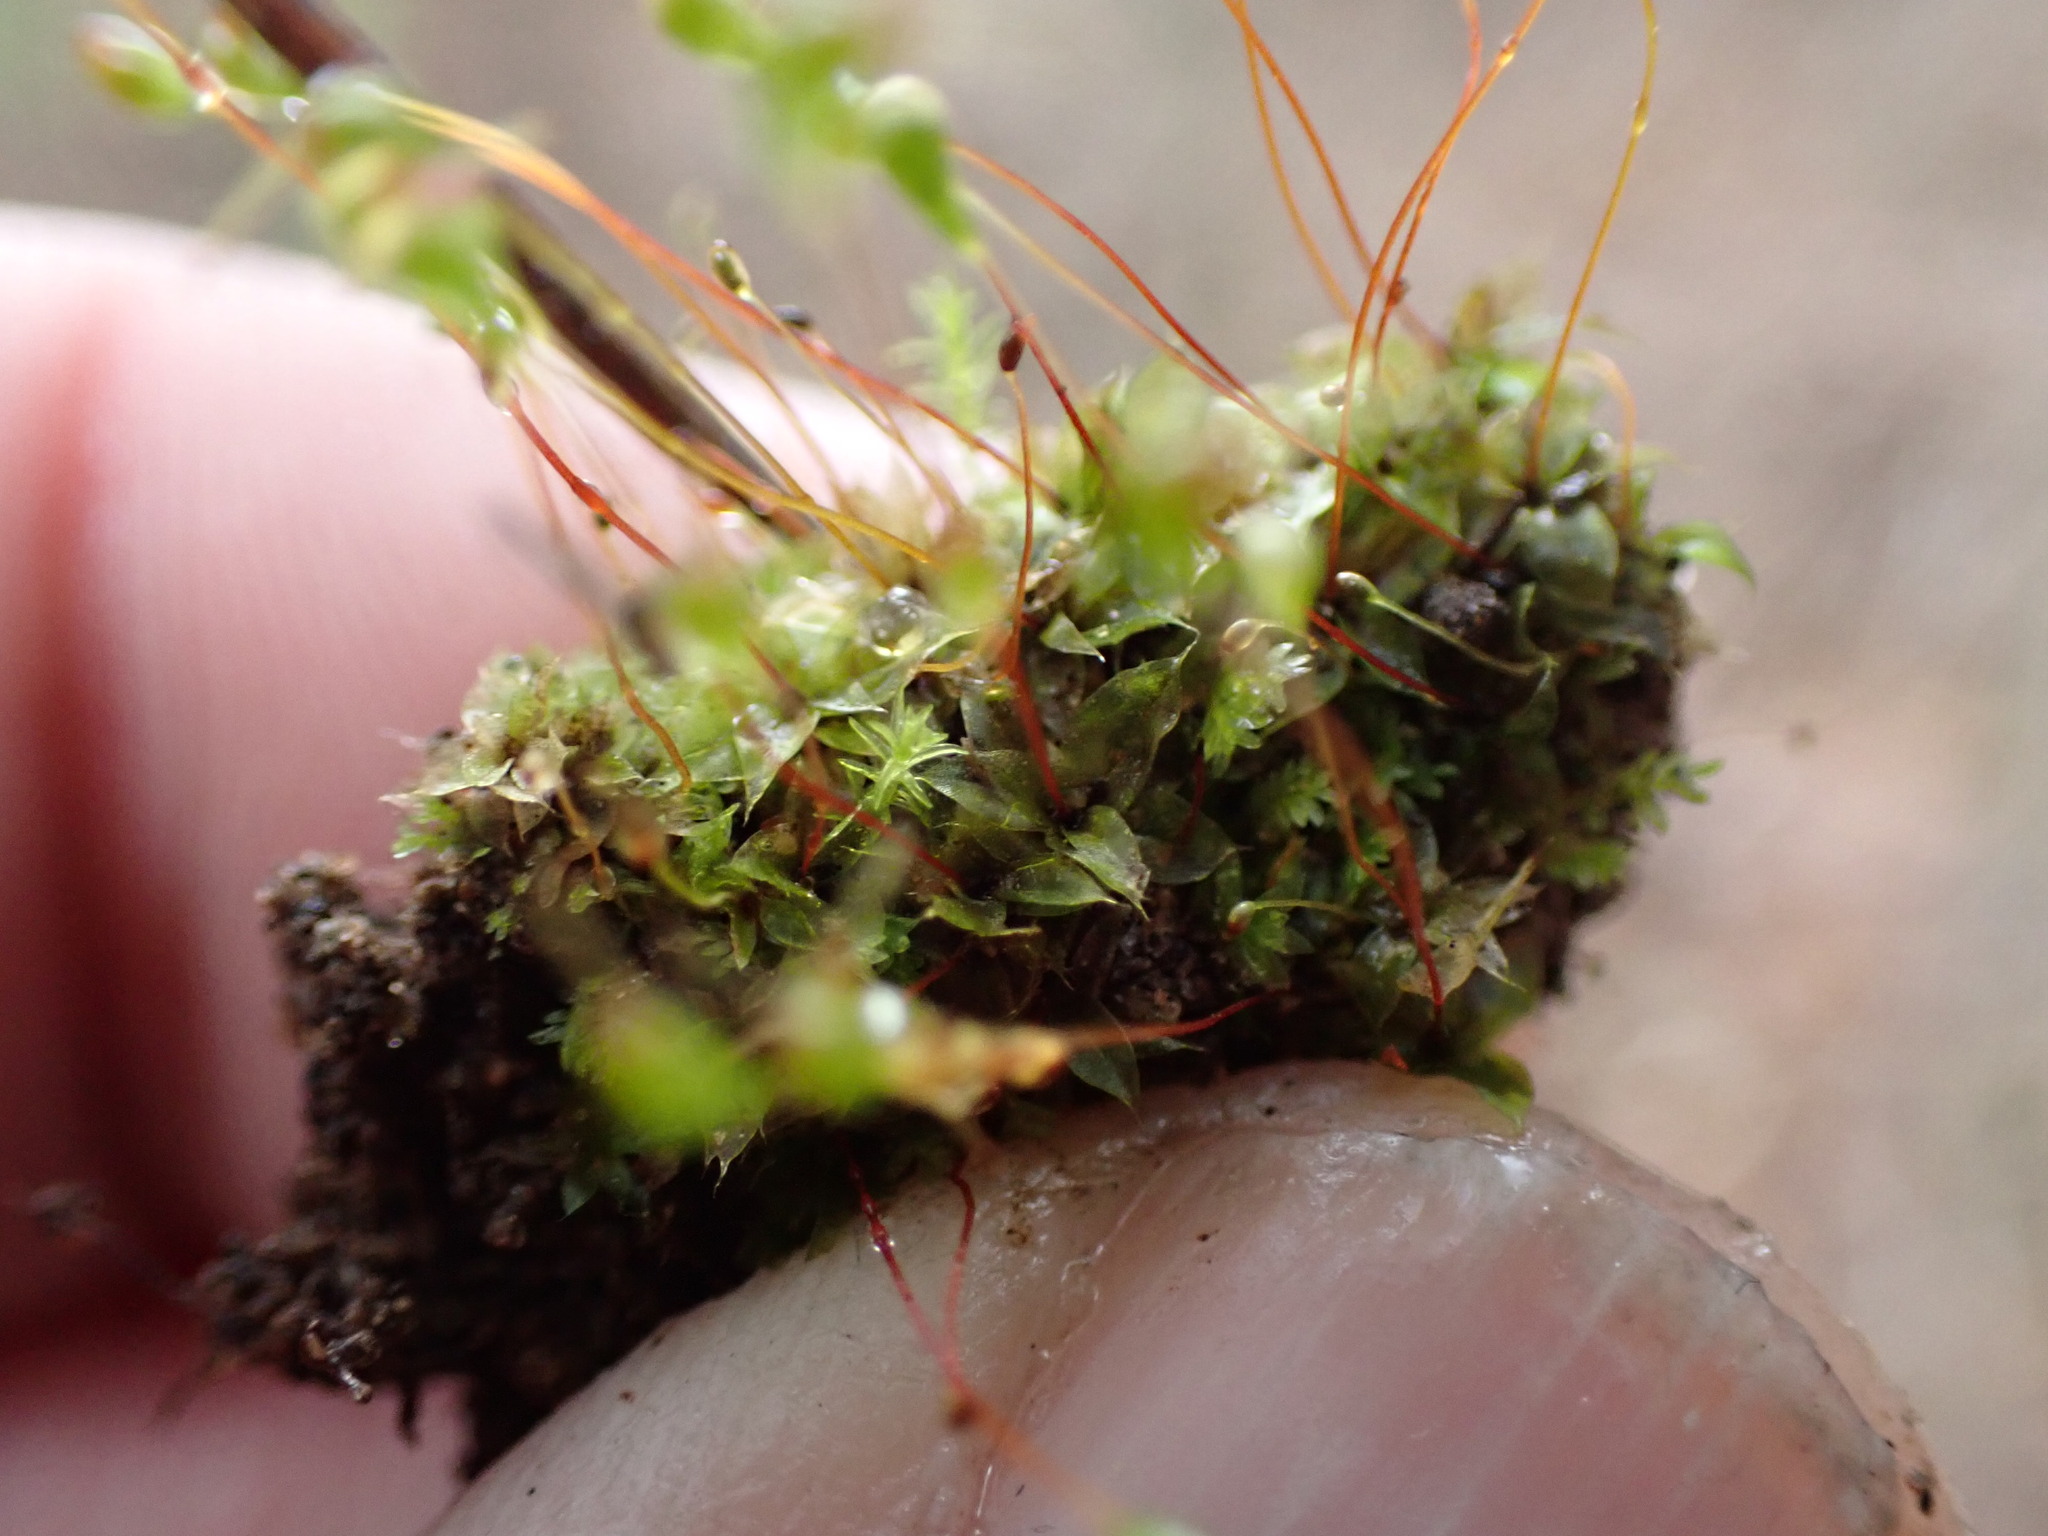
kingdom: Plantae
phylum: Bryophyta
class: Bryopsida
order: Funariales
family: Funariaceae
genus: Entosthodon
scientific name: Entosthodon muhlenbergii
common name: Muhlenberg's cord-moss
